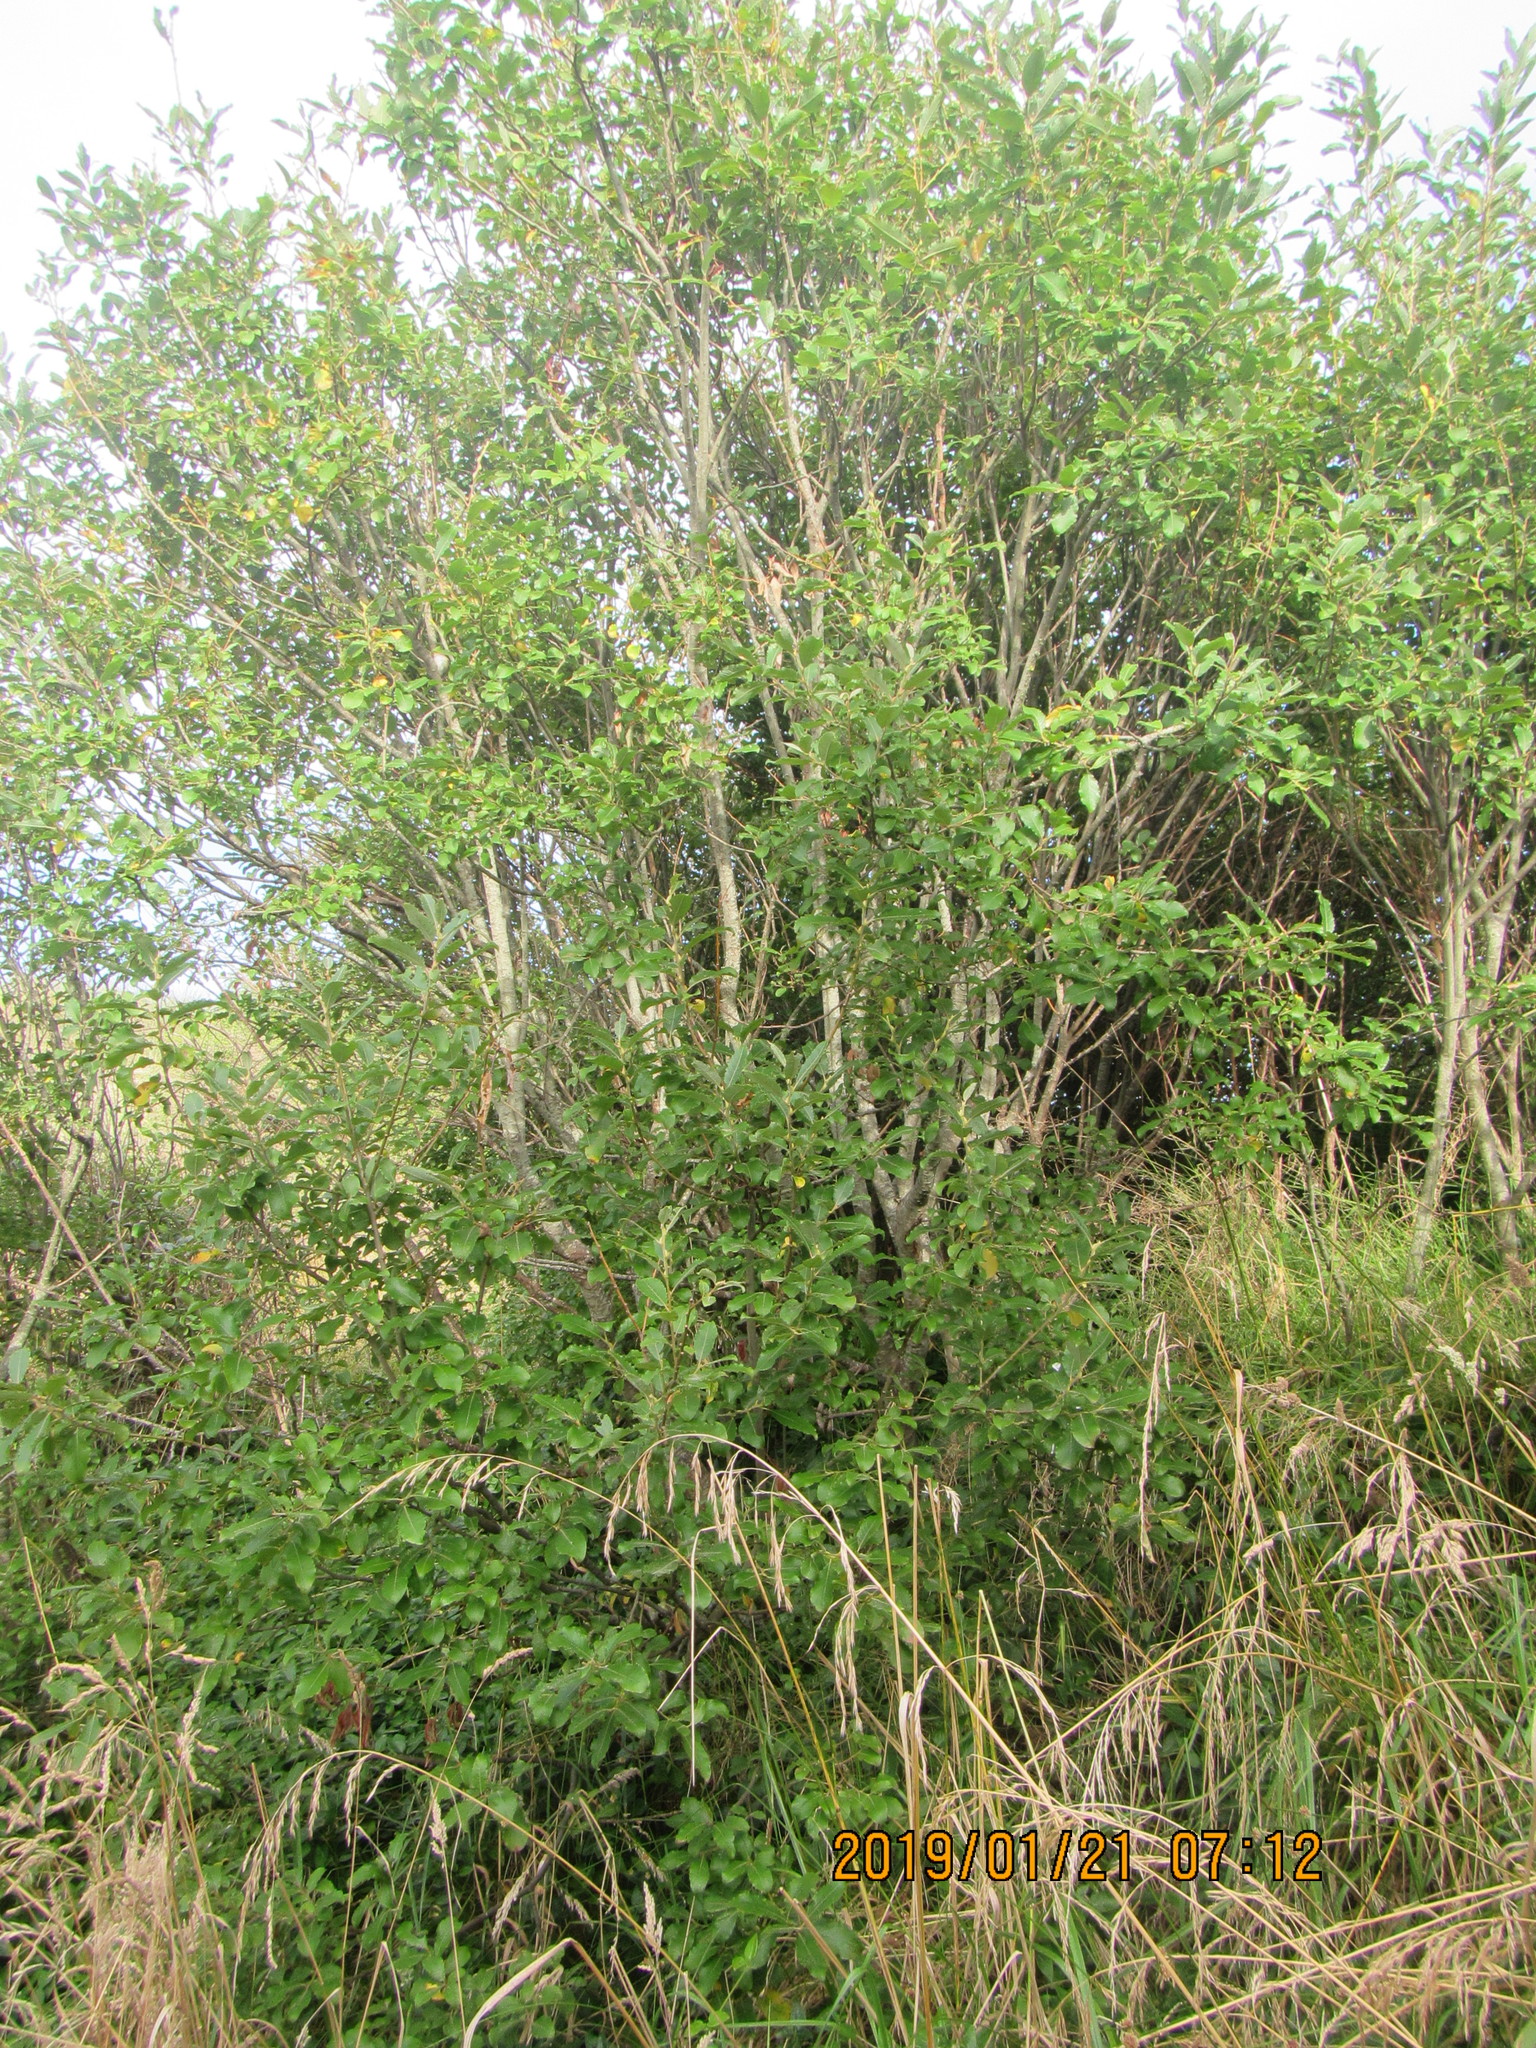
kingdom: Plantae
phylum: Tracheophyta
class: Magnoliopsida
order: Malpighiales
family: Salicaceae
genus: Salix
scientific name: Salix cinerea
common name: Common sallow
